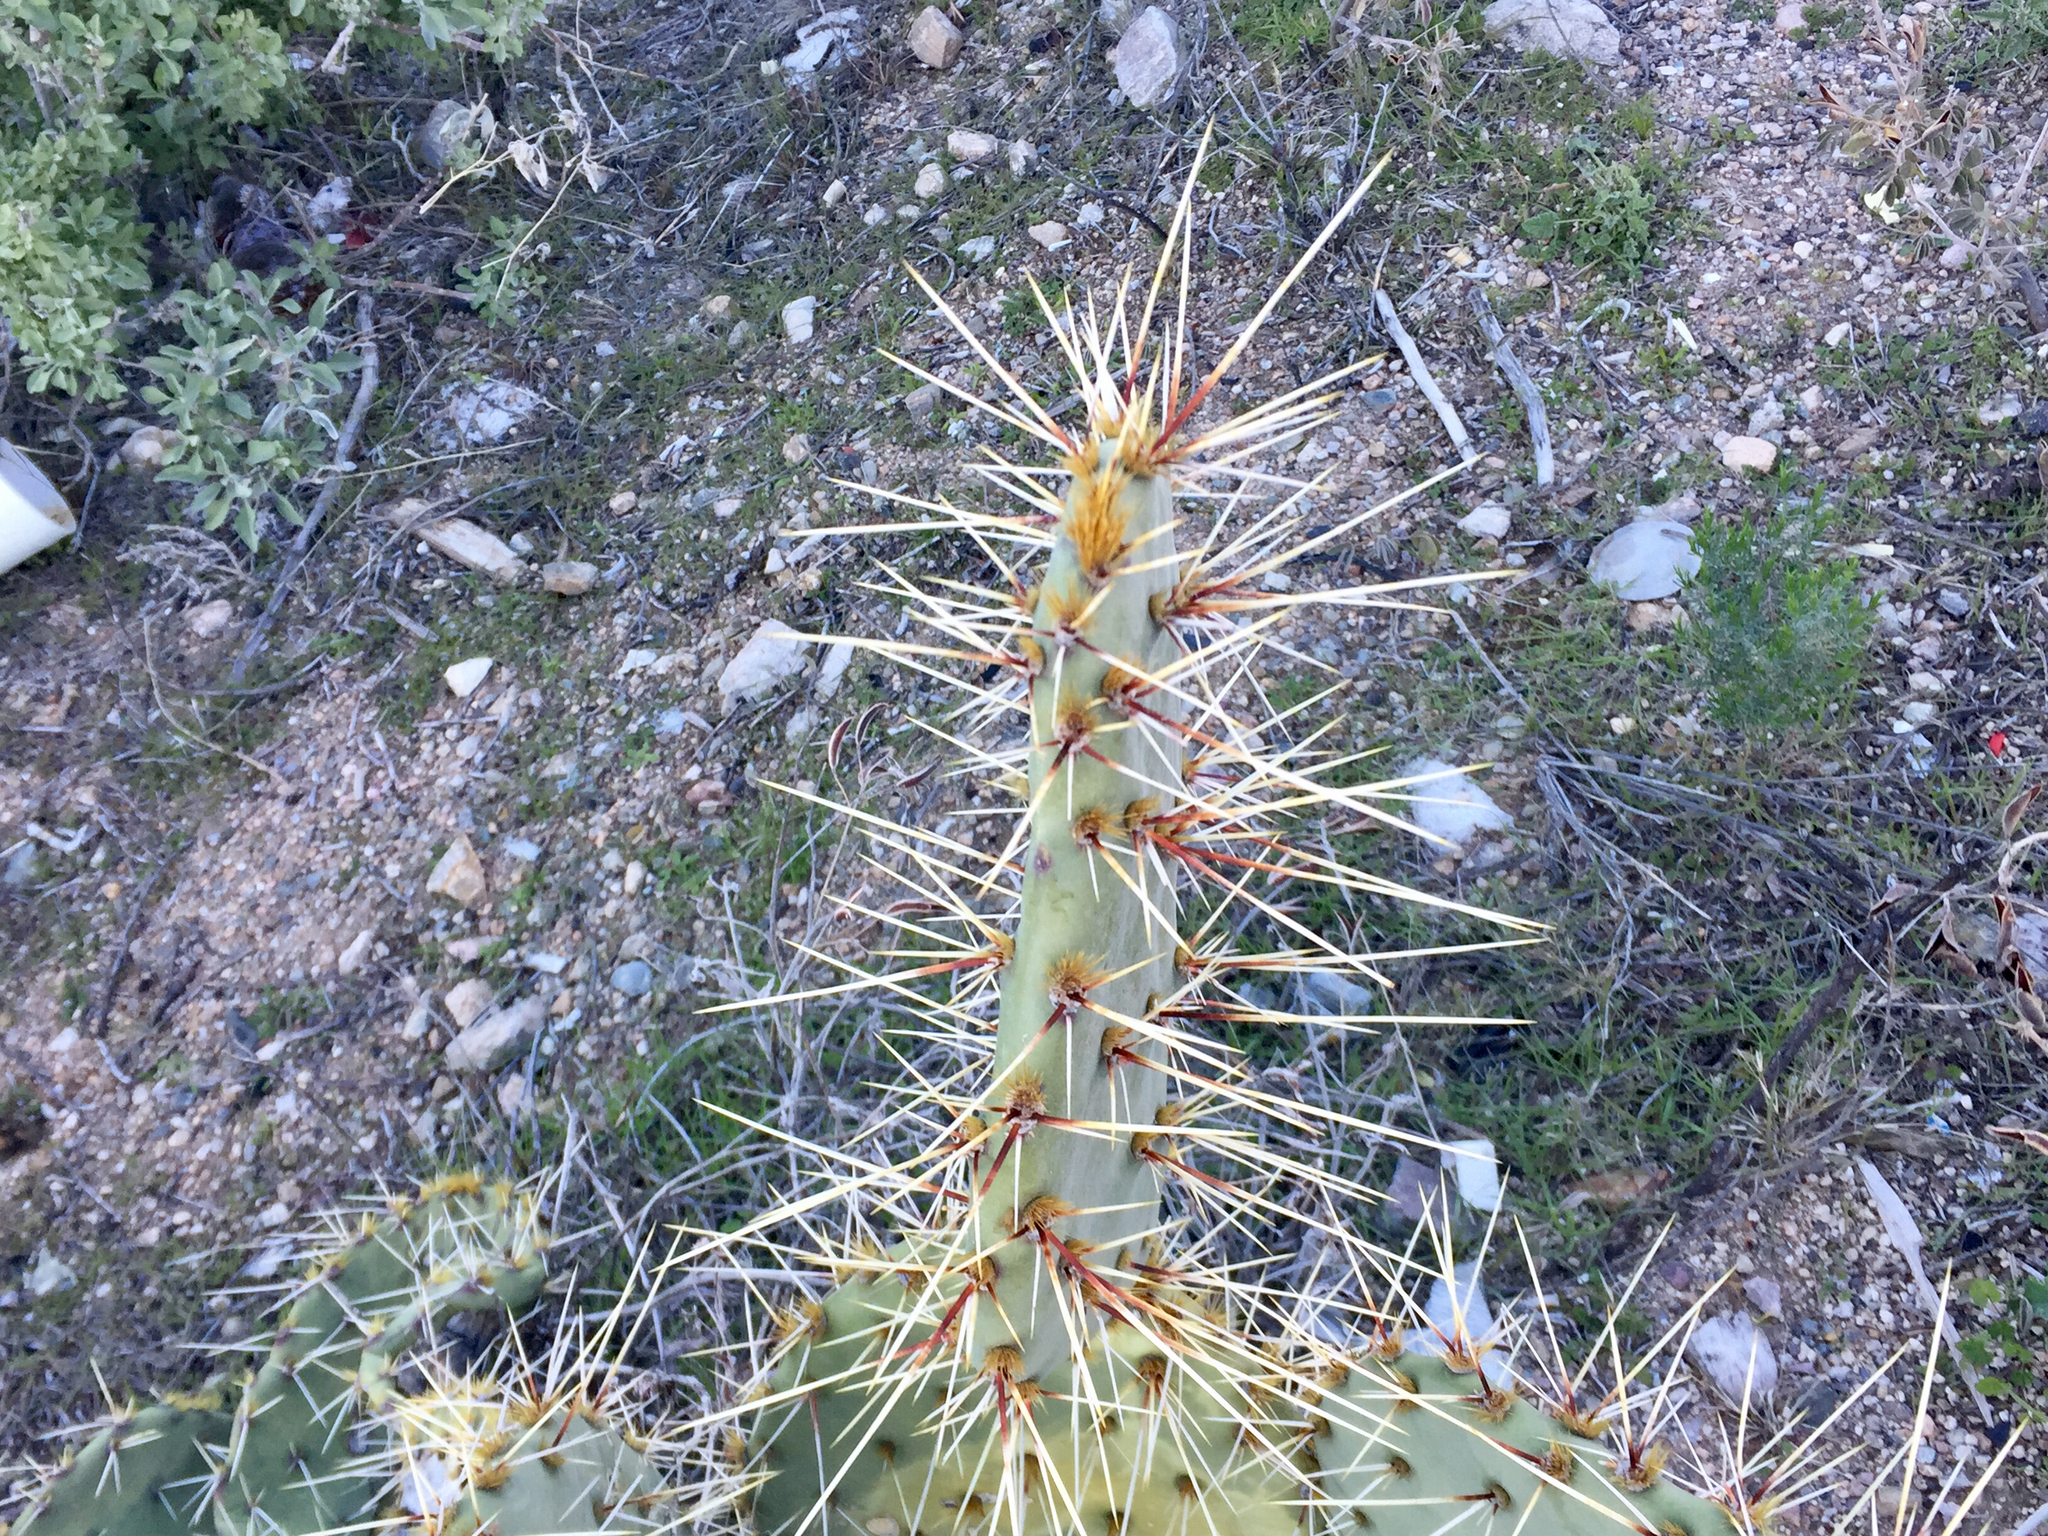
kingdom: Plantae
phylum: Tracheophyta
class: Magnoliopsida
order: Caryophyllales
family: Cactaceae
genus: Opuntia
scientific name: Opuntia engelmannii
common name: Cactus-apple
